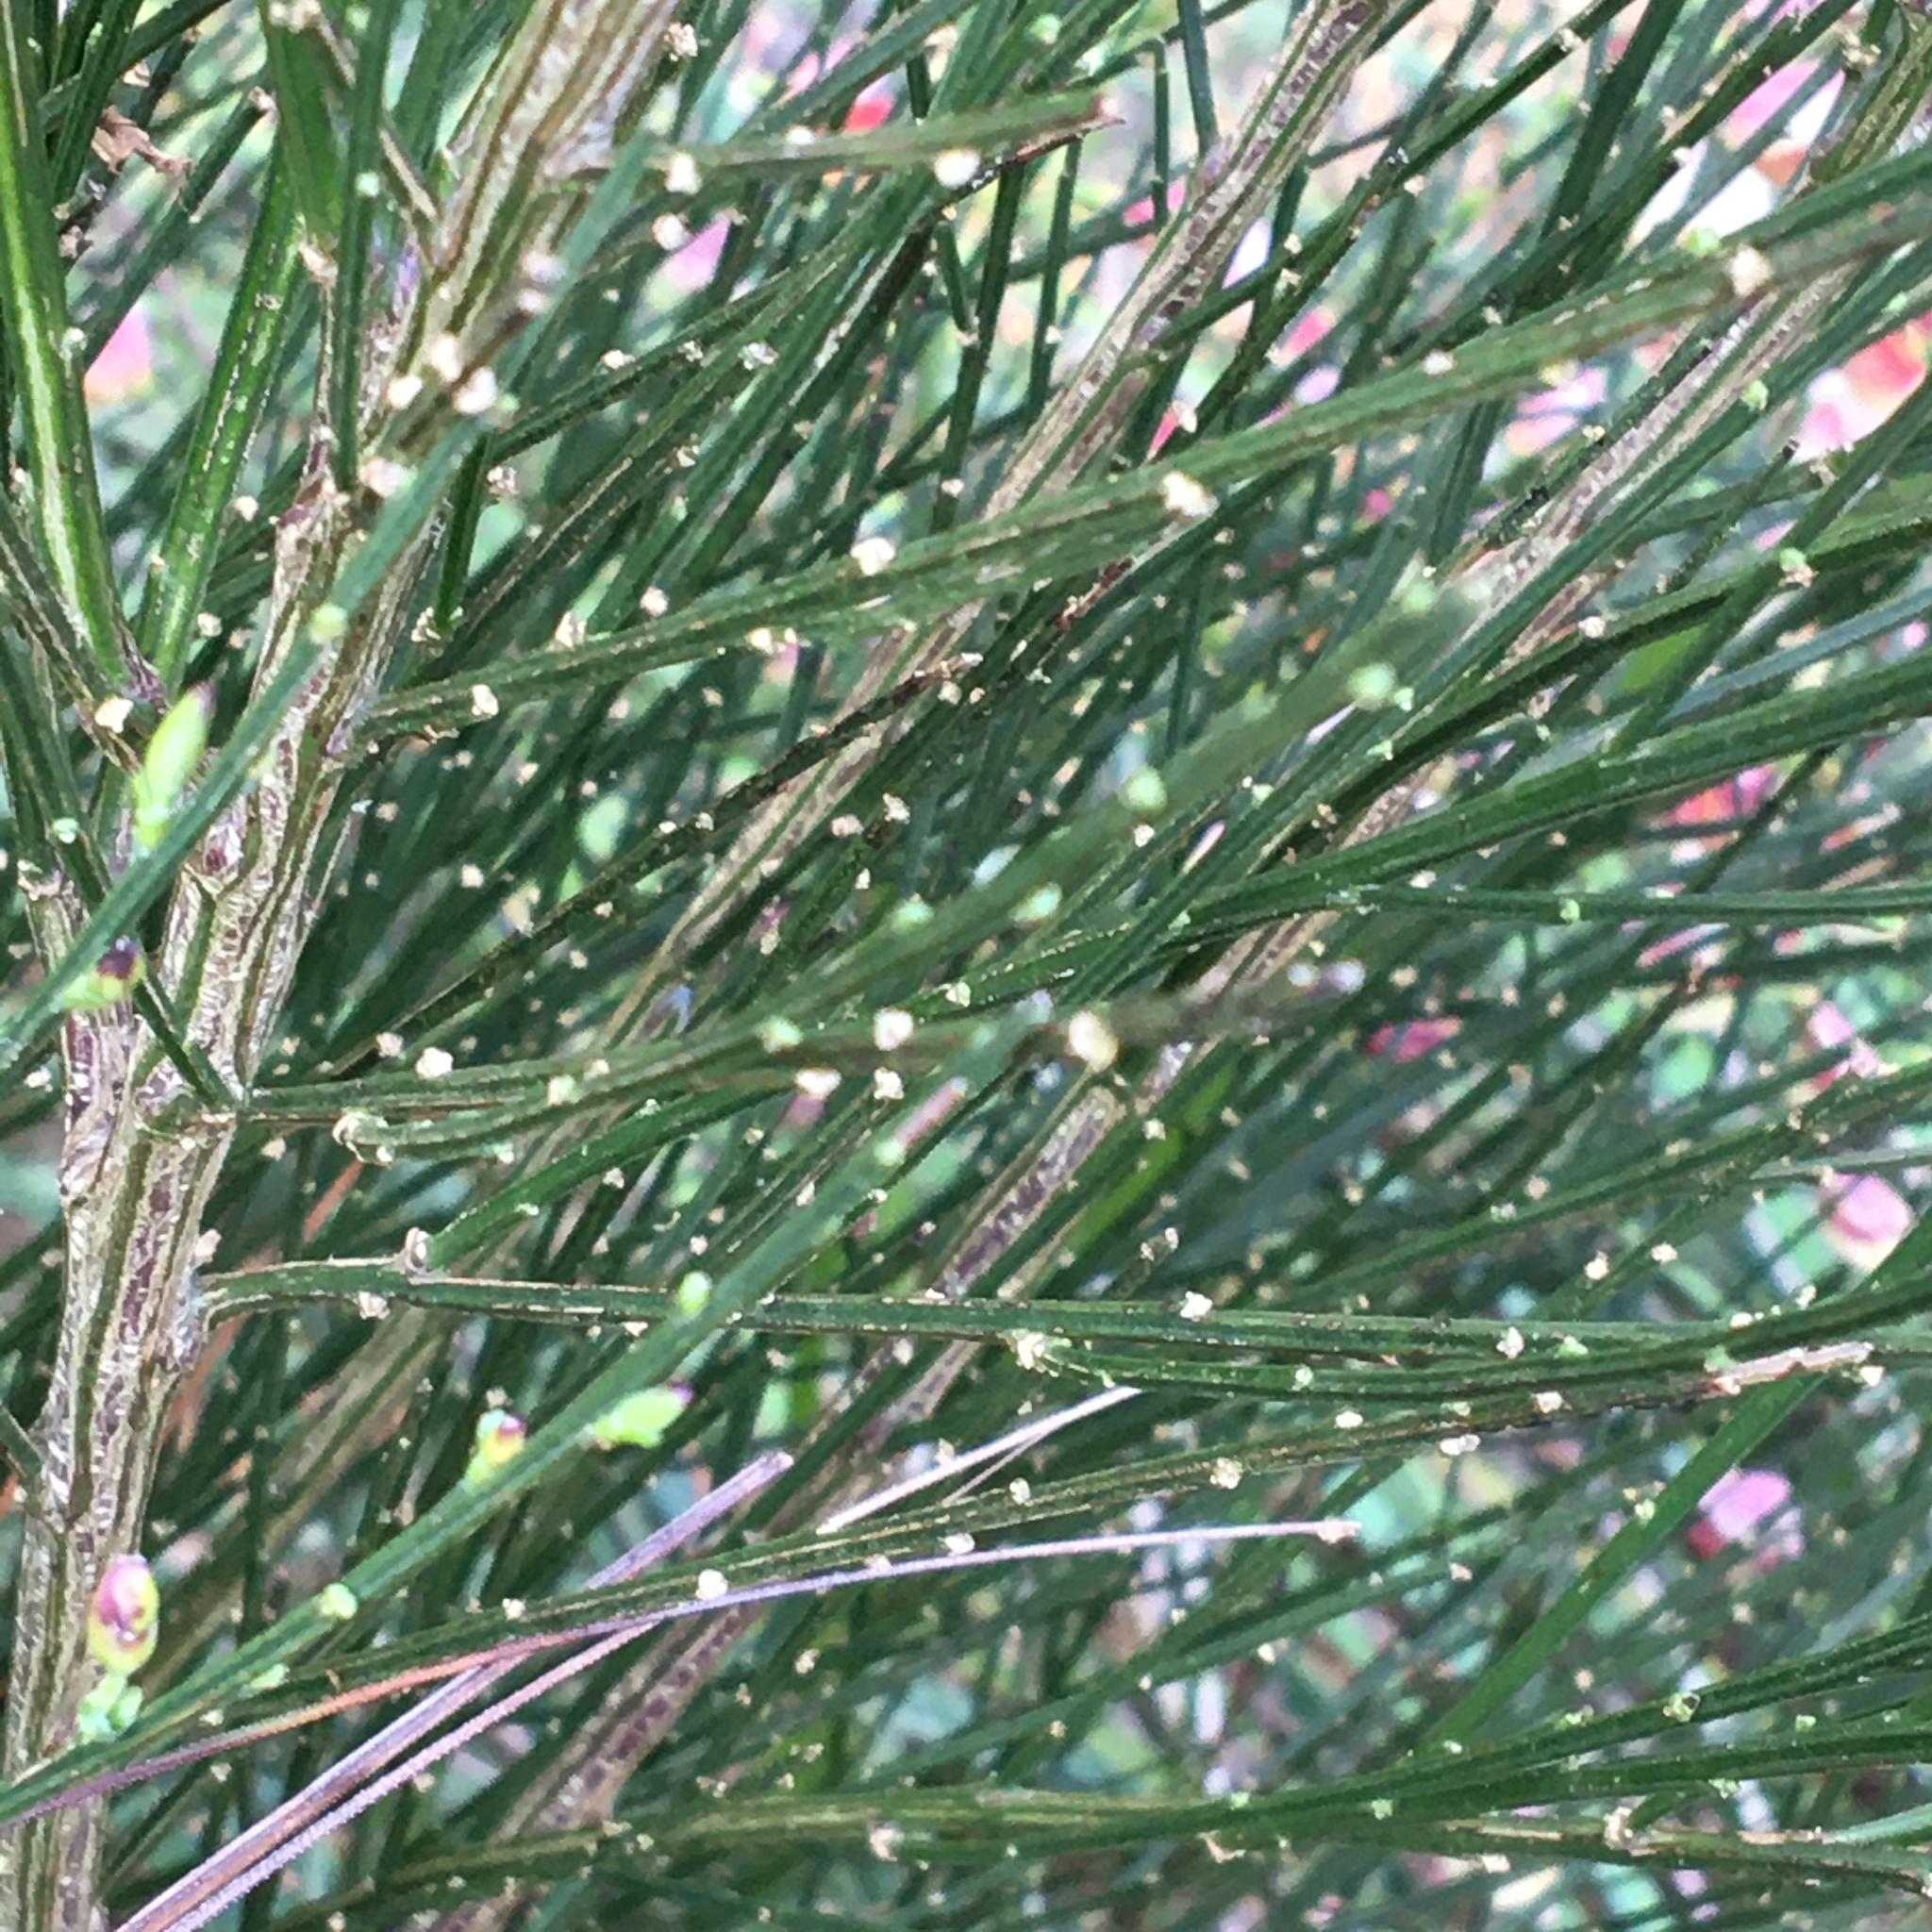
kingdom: Plantae
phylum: Tracheophyta
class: Magnoliopsida
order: Fabales
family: Fabaceae
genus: Cytisus
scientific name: Cytisus scoparius
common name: Scotch broom
